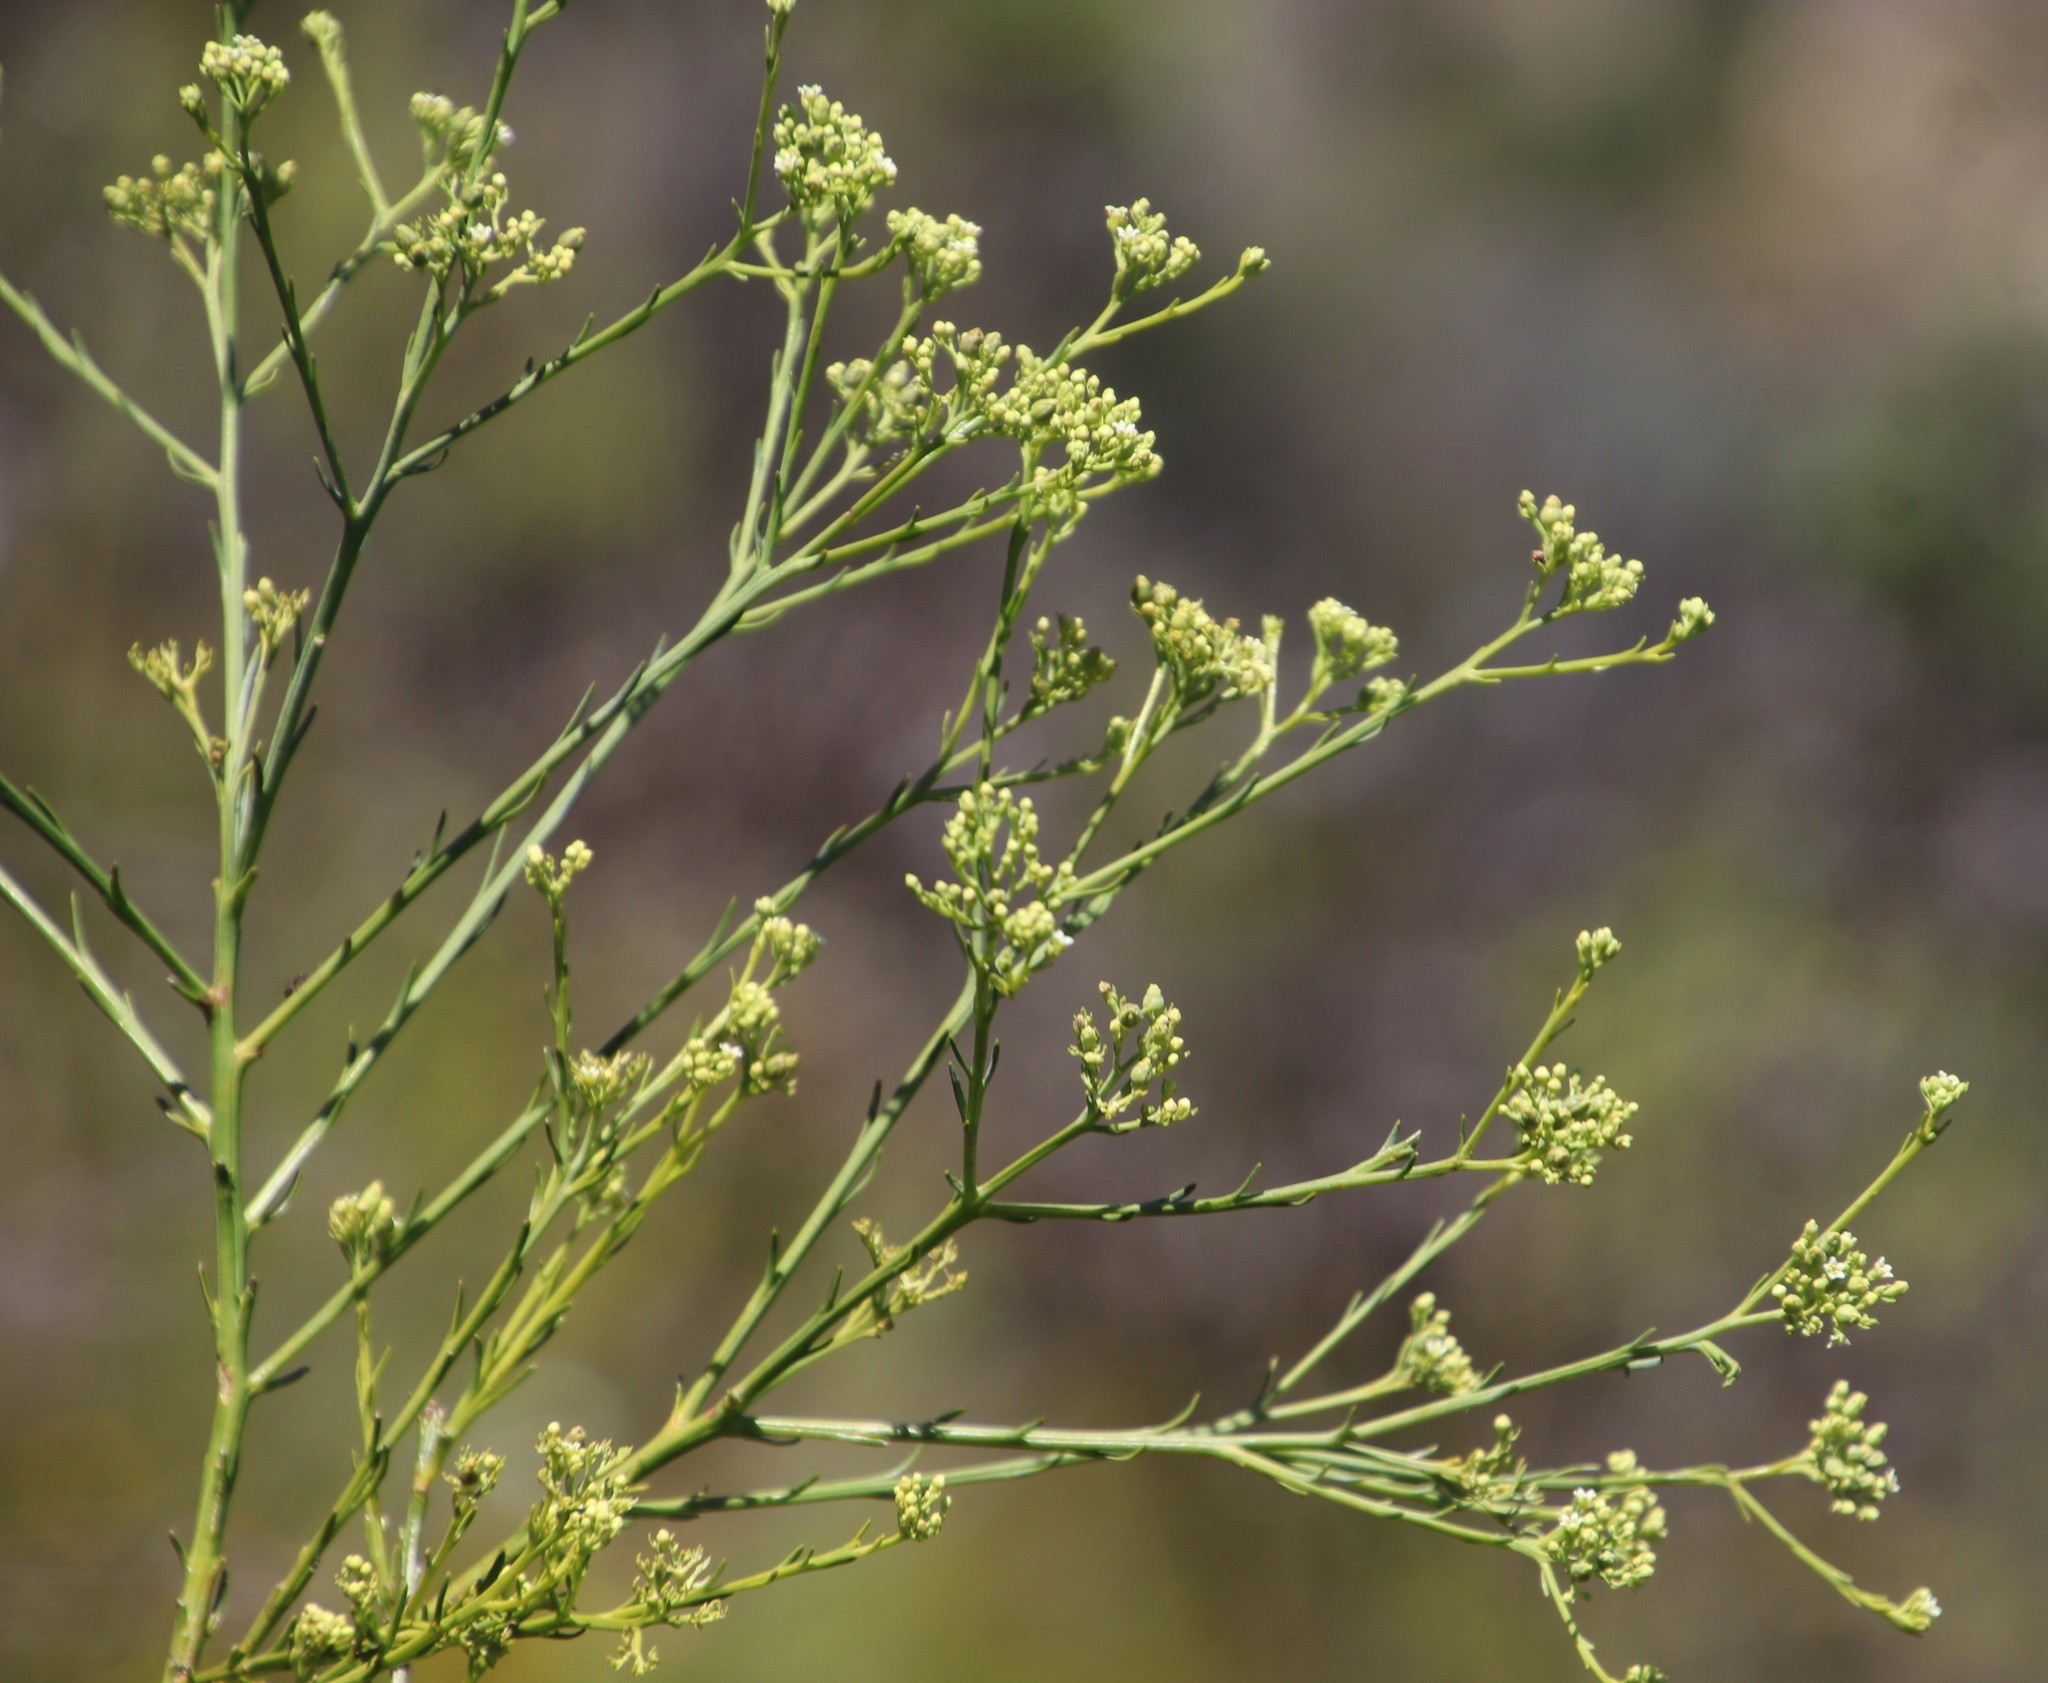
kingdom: Plantae
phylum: Tracheophyta
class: Magnoliopsida
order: Santalales
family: Thesiaceae
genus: Thesium
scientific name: Thesium strictum
